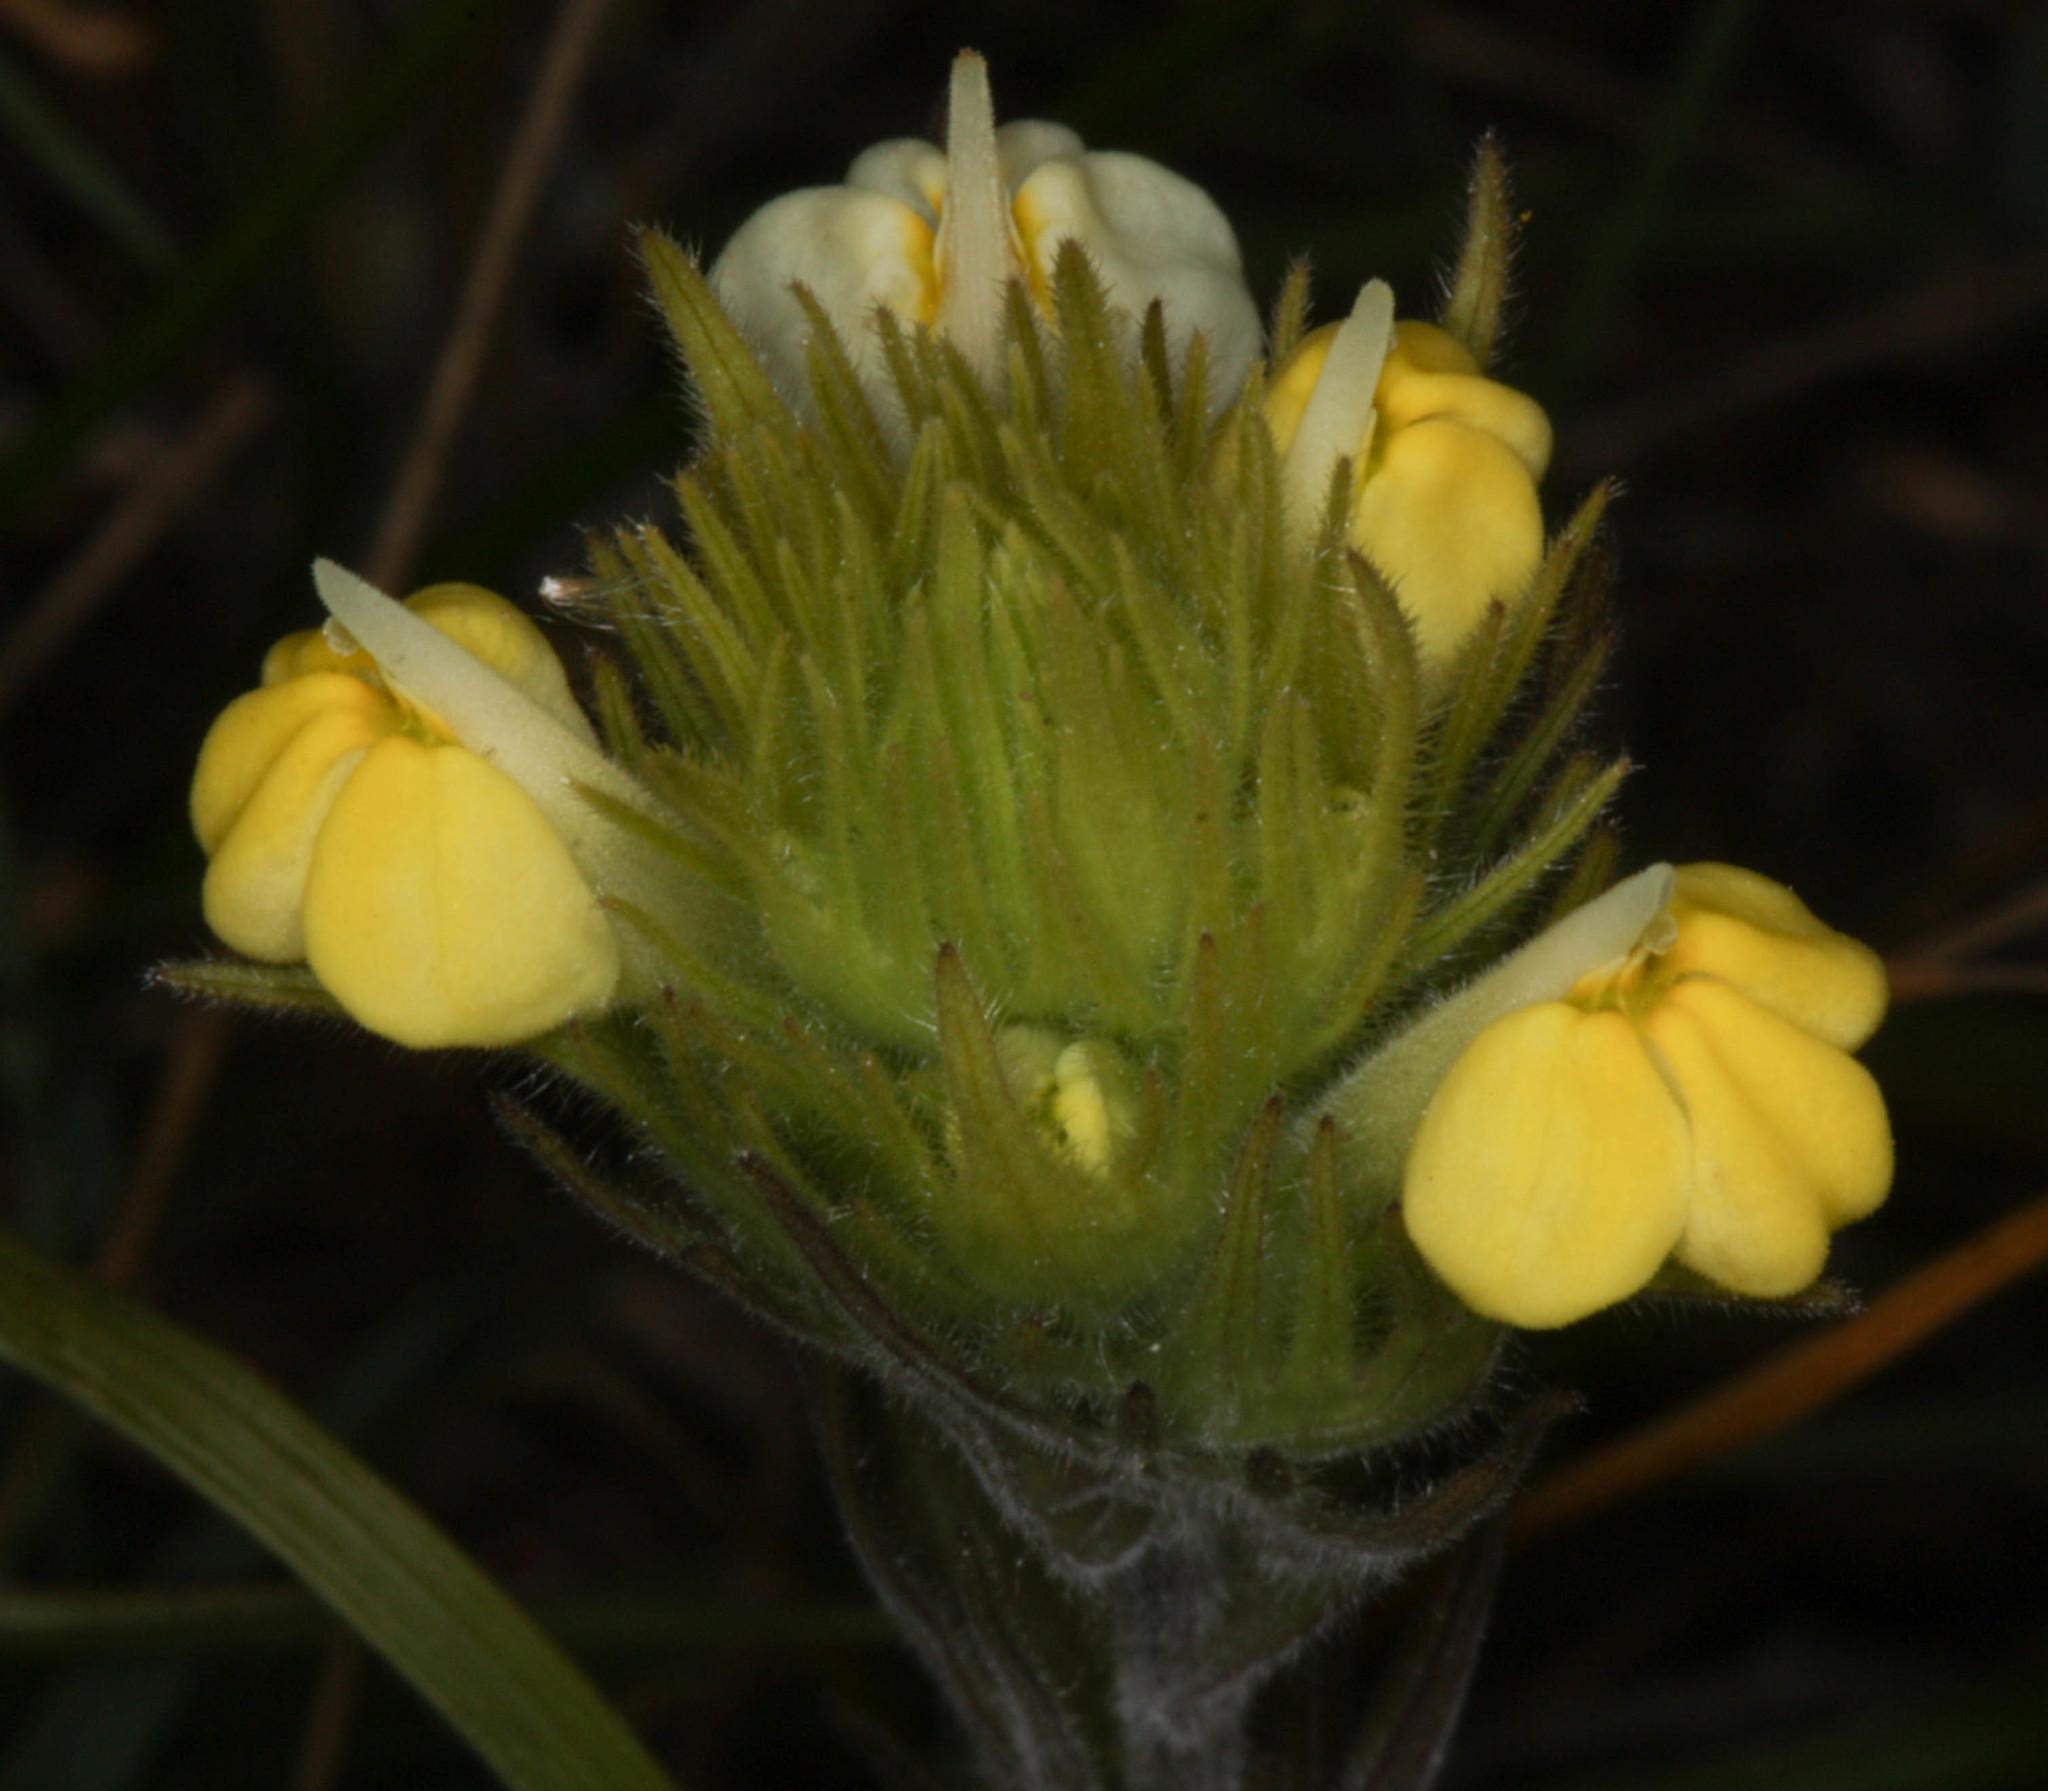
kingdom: Plantae
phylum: Tracheophyta
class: Magnoliopsida
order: Lamiales
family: Orobanchaceae
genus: Castilleja
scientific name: Castilleja rubicundula
